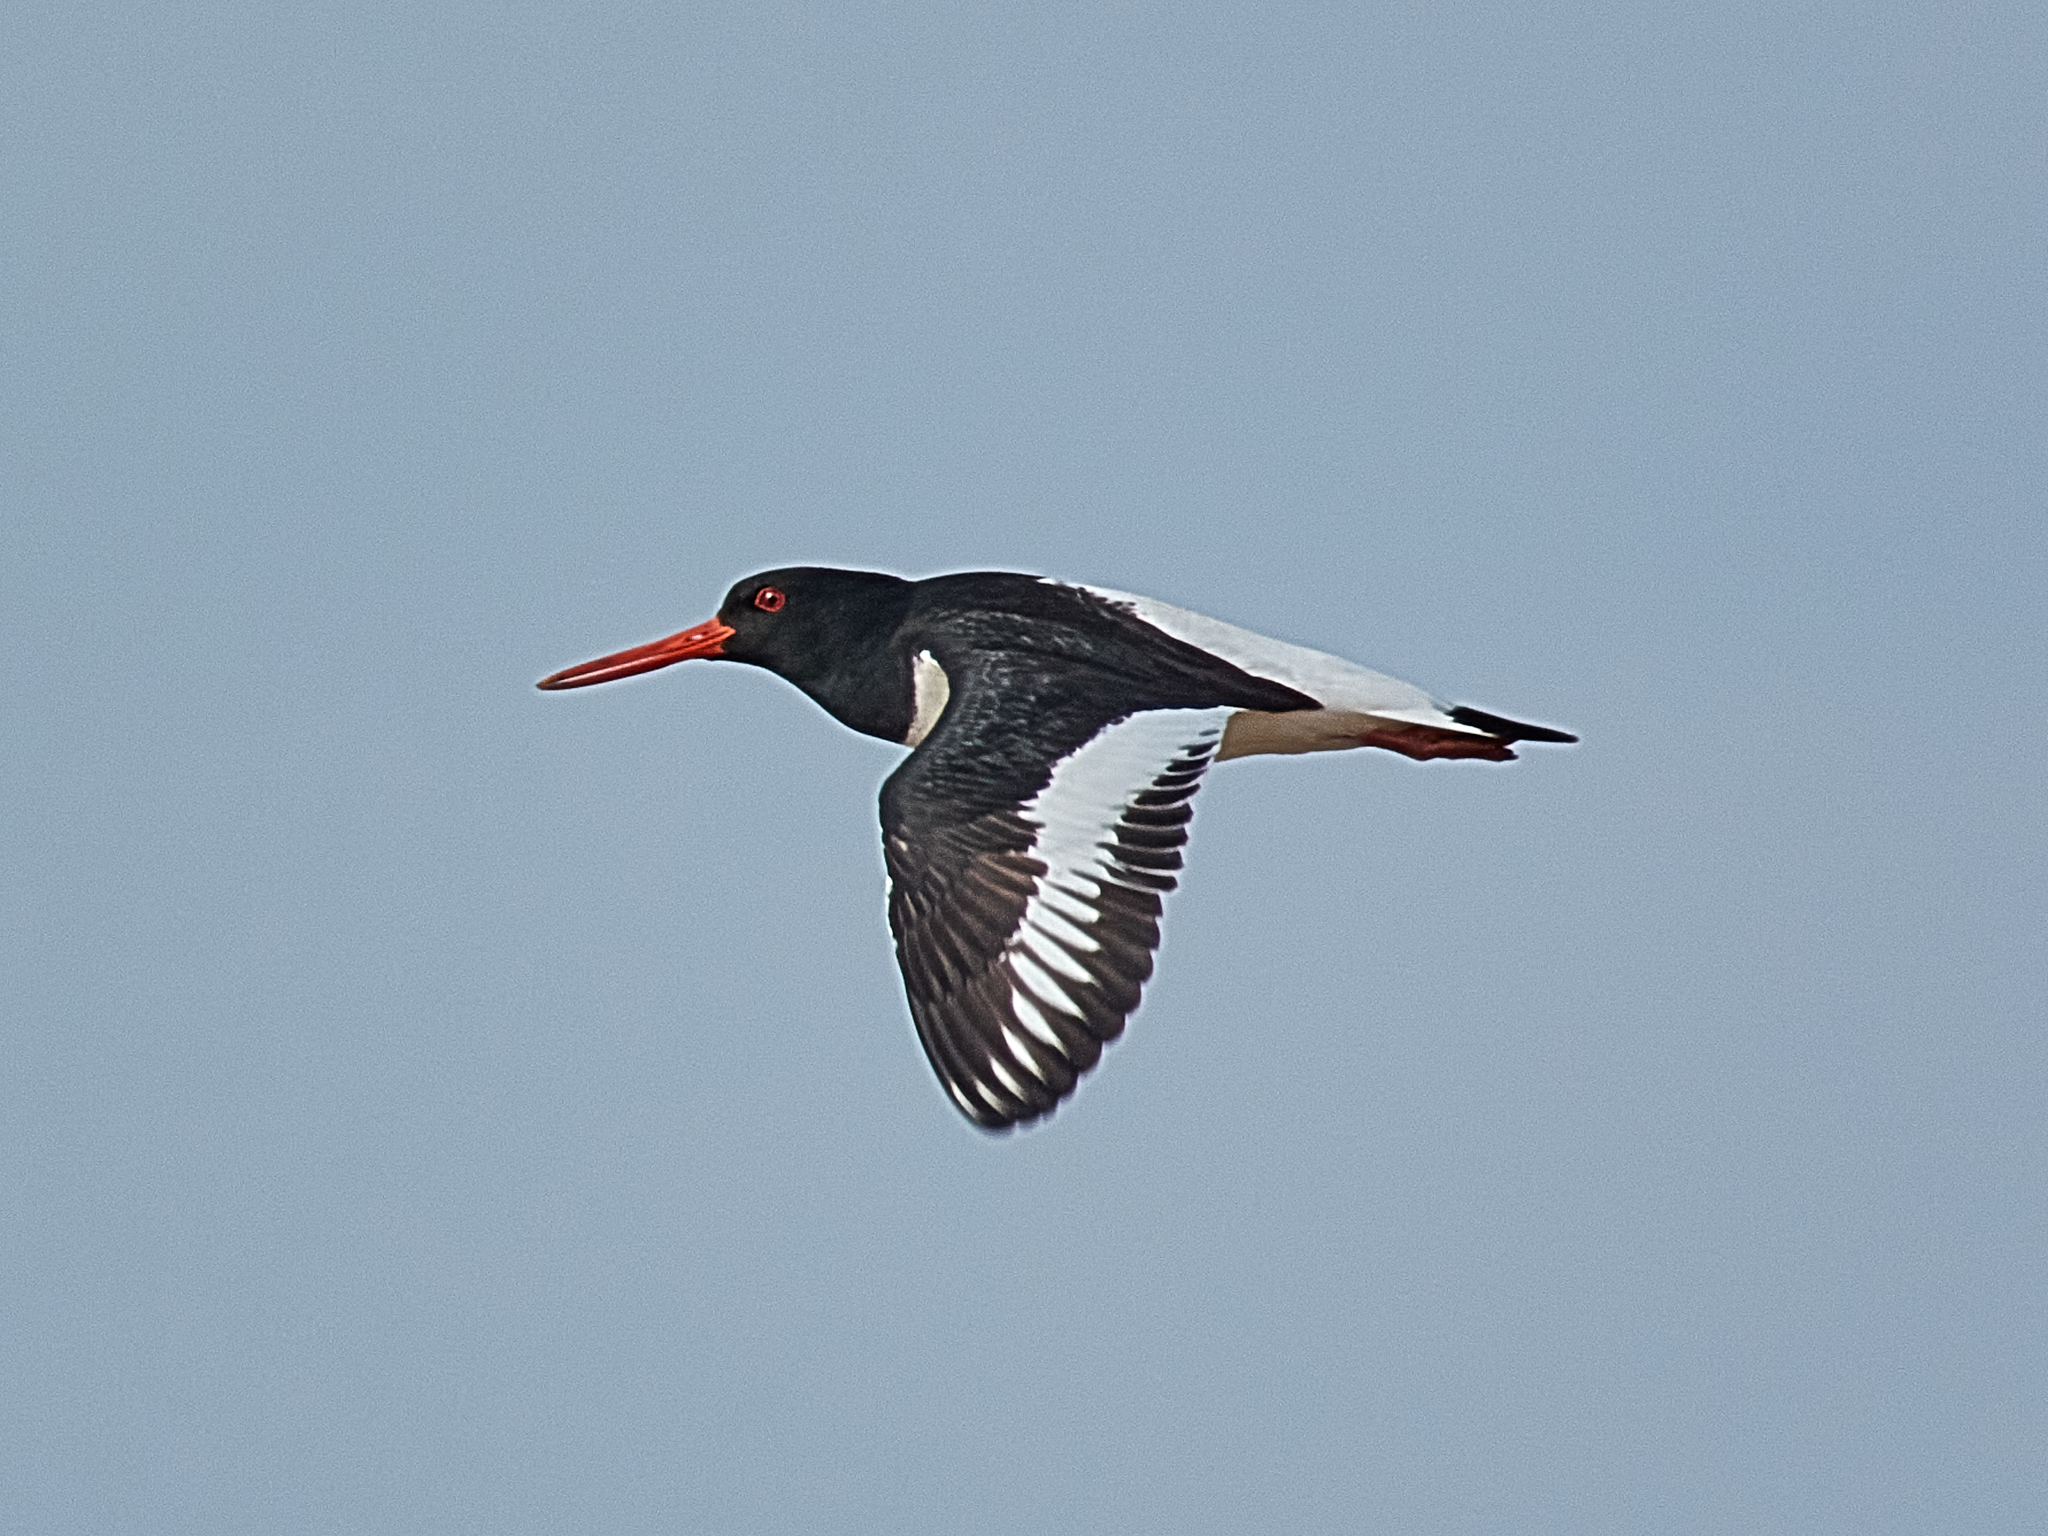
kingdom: Animalia
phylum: Chordata
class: Aves
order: Charadriiformes
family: Haematopodidae
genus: Haematopus
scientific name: Haematopus ostralegus
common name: Eurasian oystercatcher
